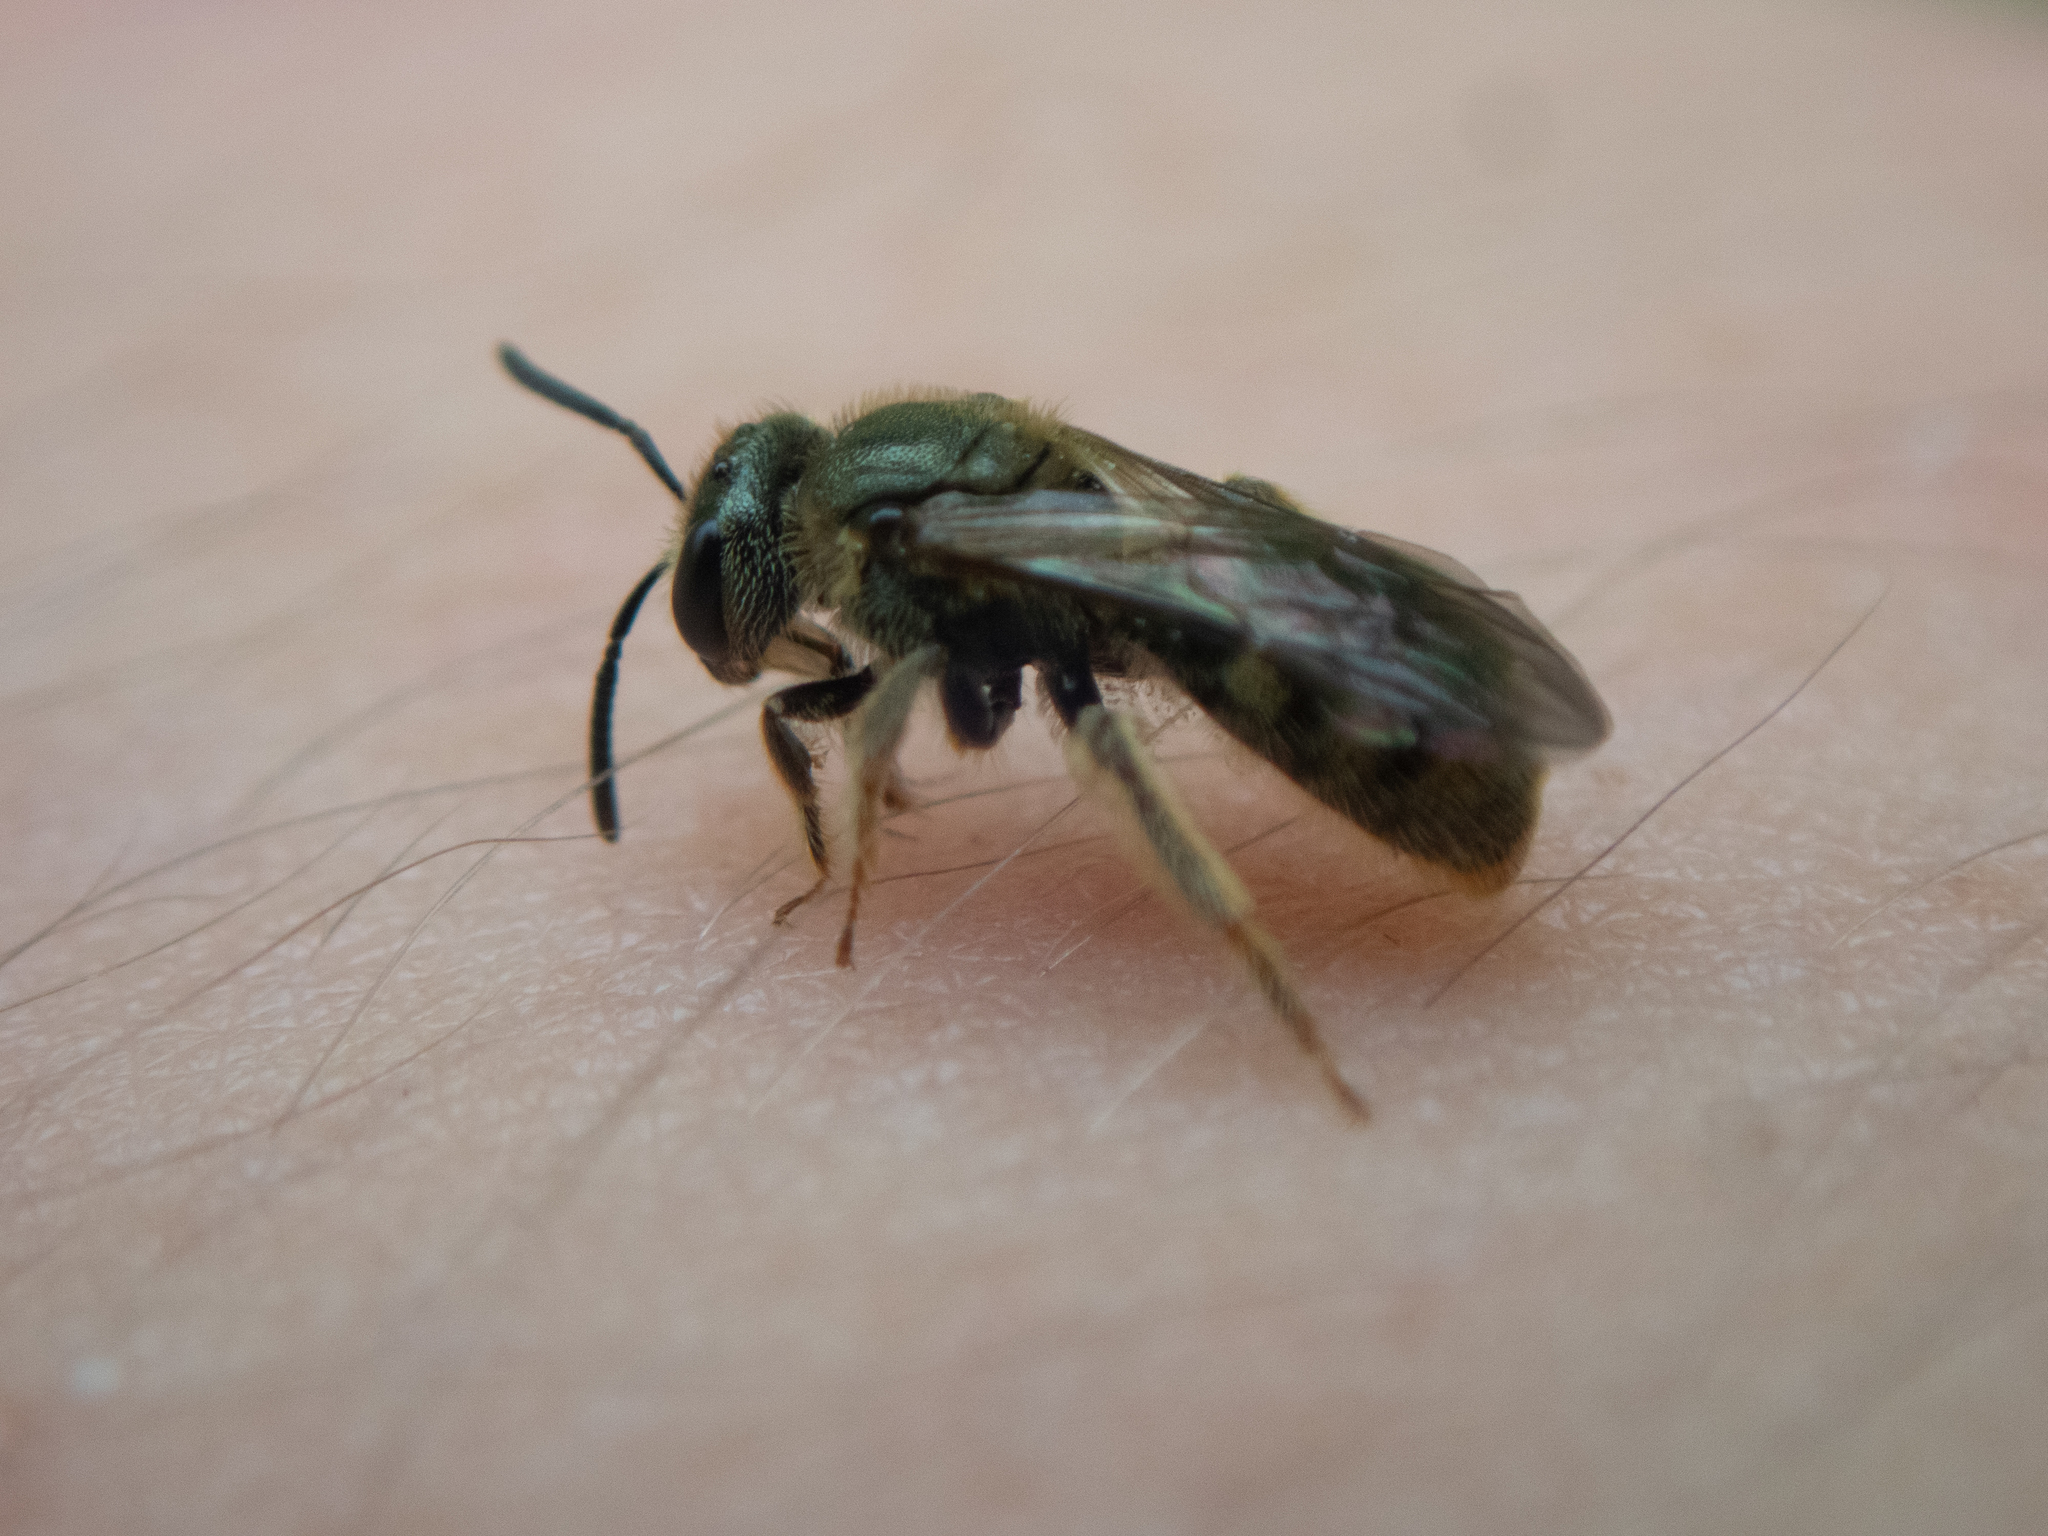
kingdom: Animalia
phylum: Arthropoda
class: Insecta
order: Hymenoptera
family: Halictidae
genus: Lasioglossum
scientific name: Lasioglossum bruneri
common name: Bruner's sweat bee
